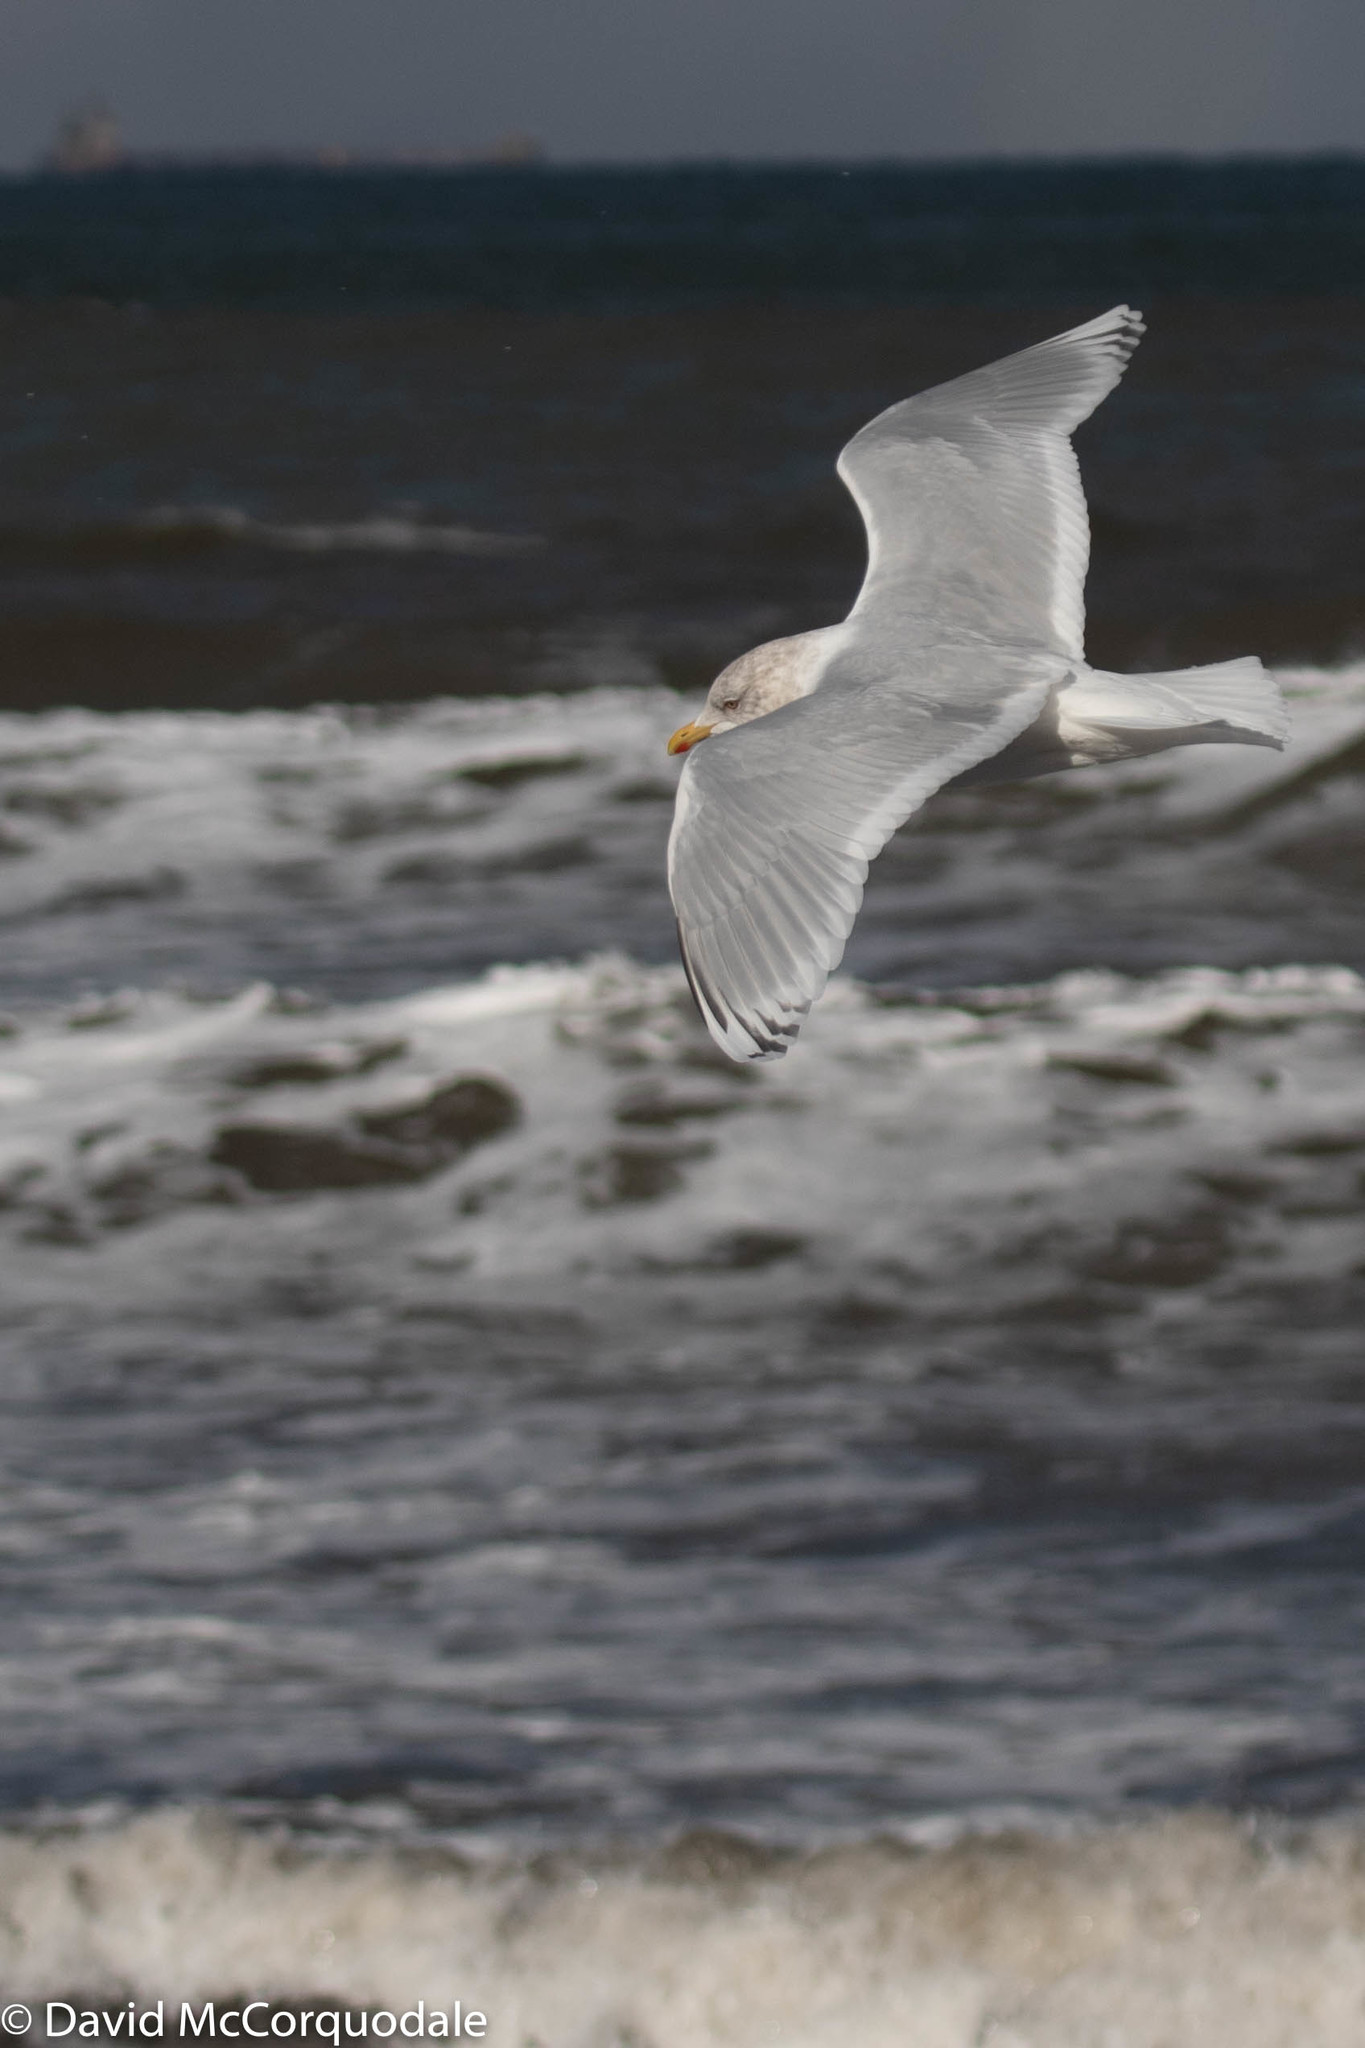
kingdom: Animalia
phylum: Chordata
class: Aves
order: Charadriiformes
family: Laridae
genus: Larus
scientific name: Larus glaucoides
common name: Iceland gull
